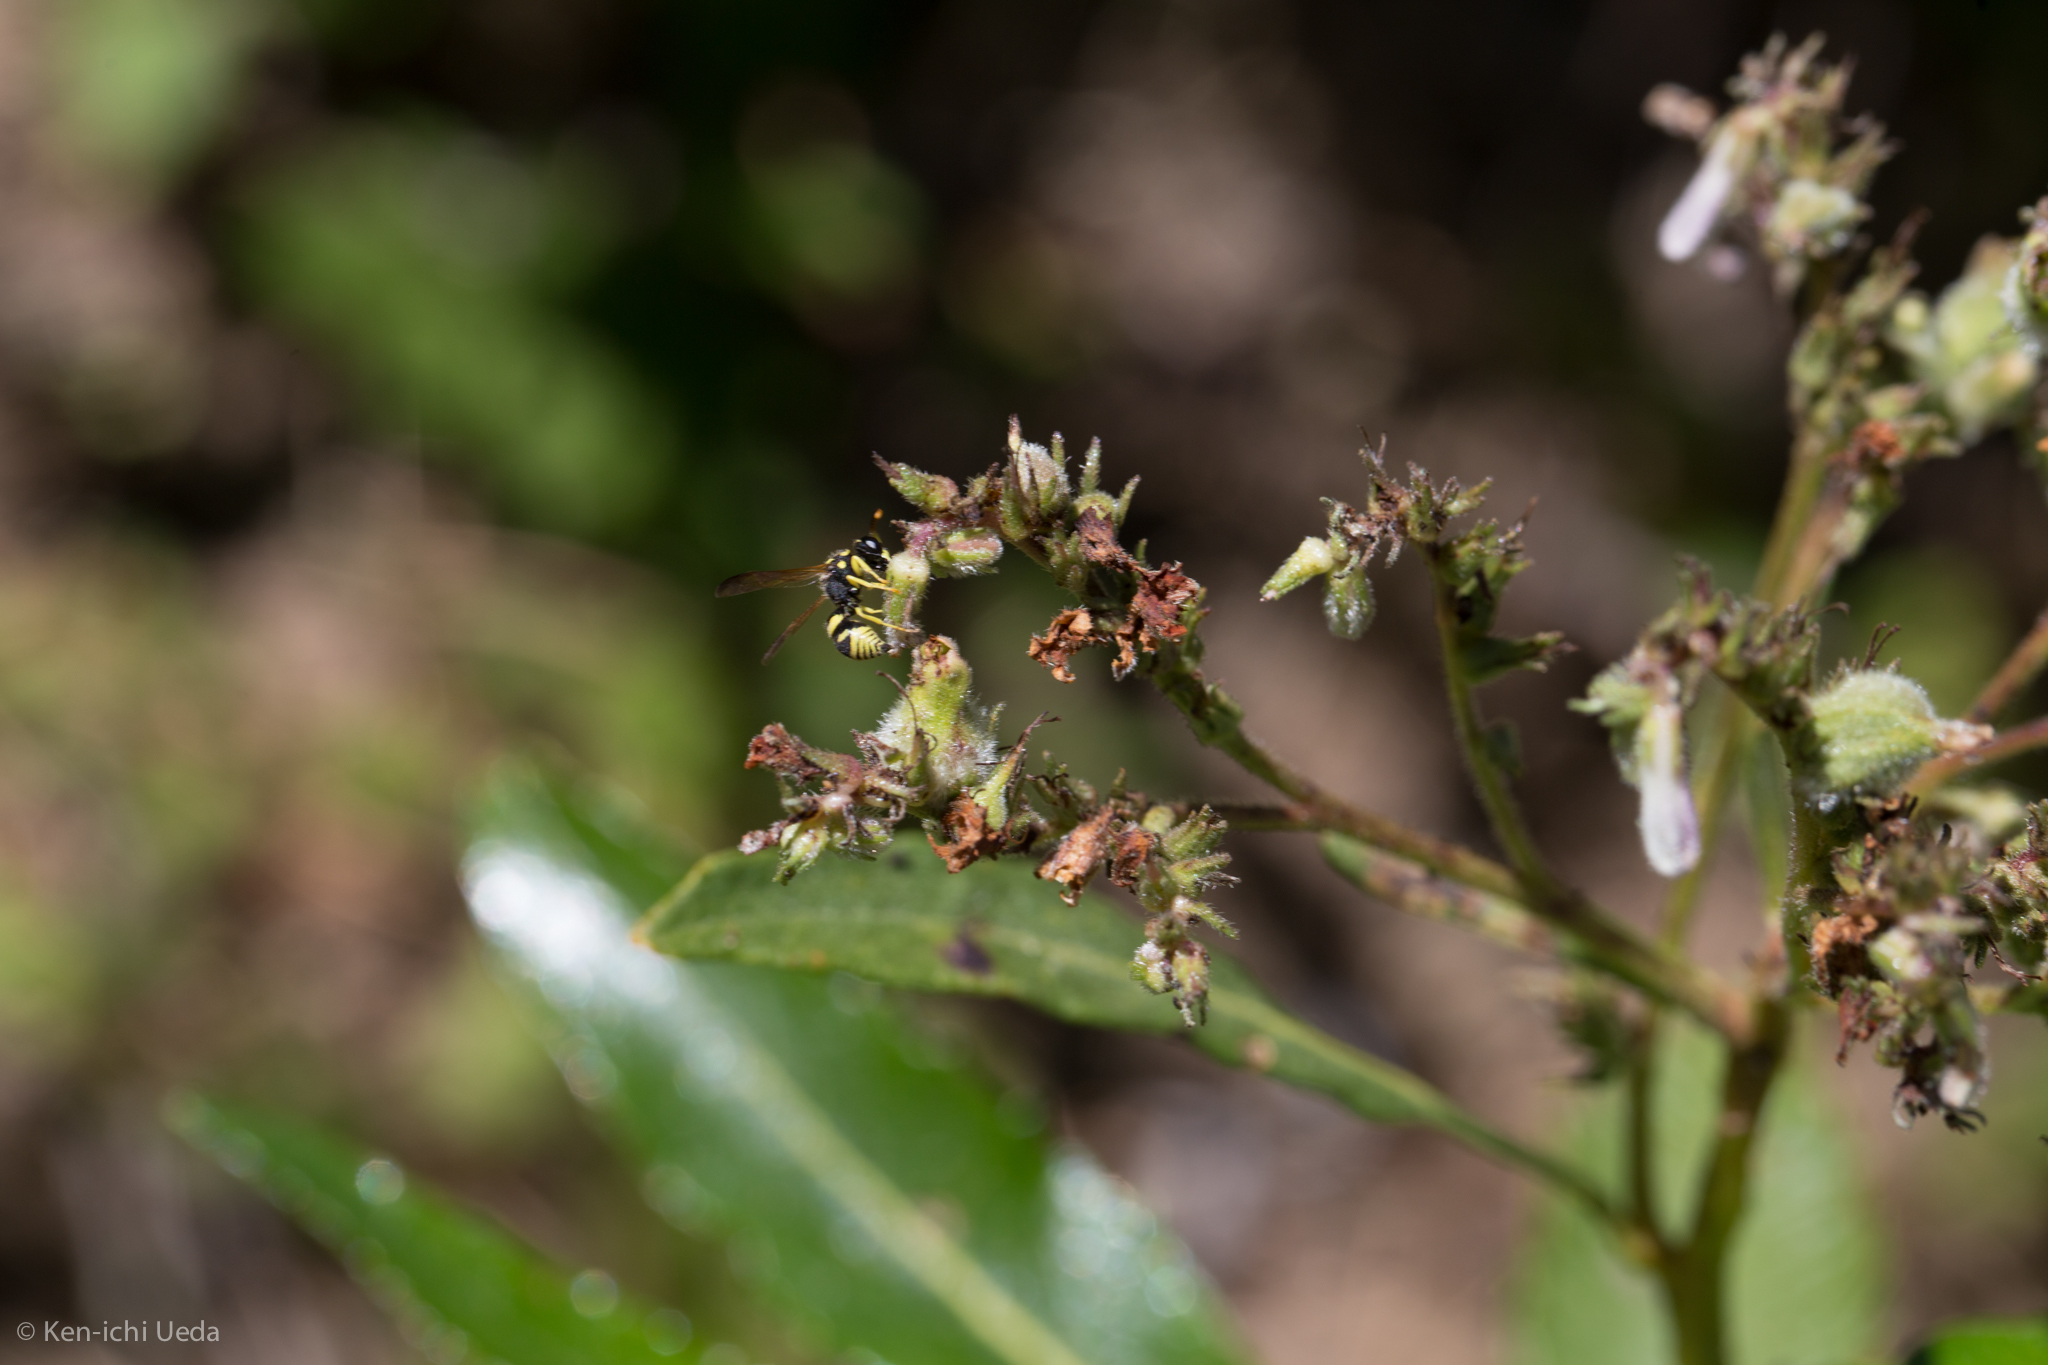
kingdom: Plantae
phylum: Tracheophyta
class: Magnoliopsida
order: Boraginales
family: Namaceae
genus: Eriodictyon
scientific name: Eriodictyon californicum
